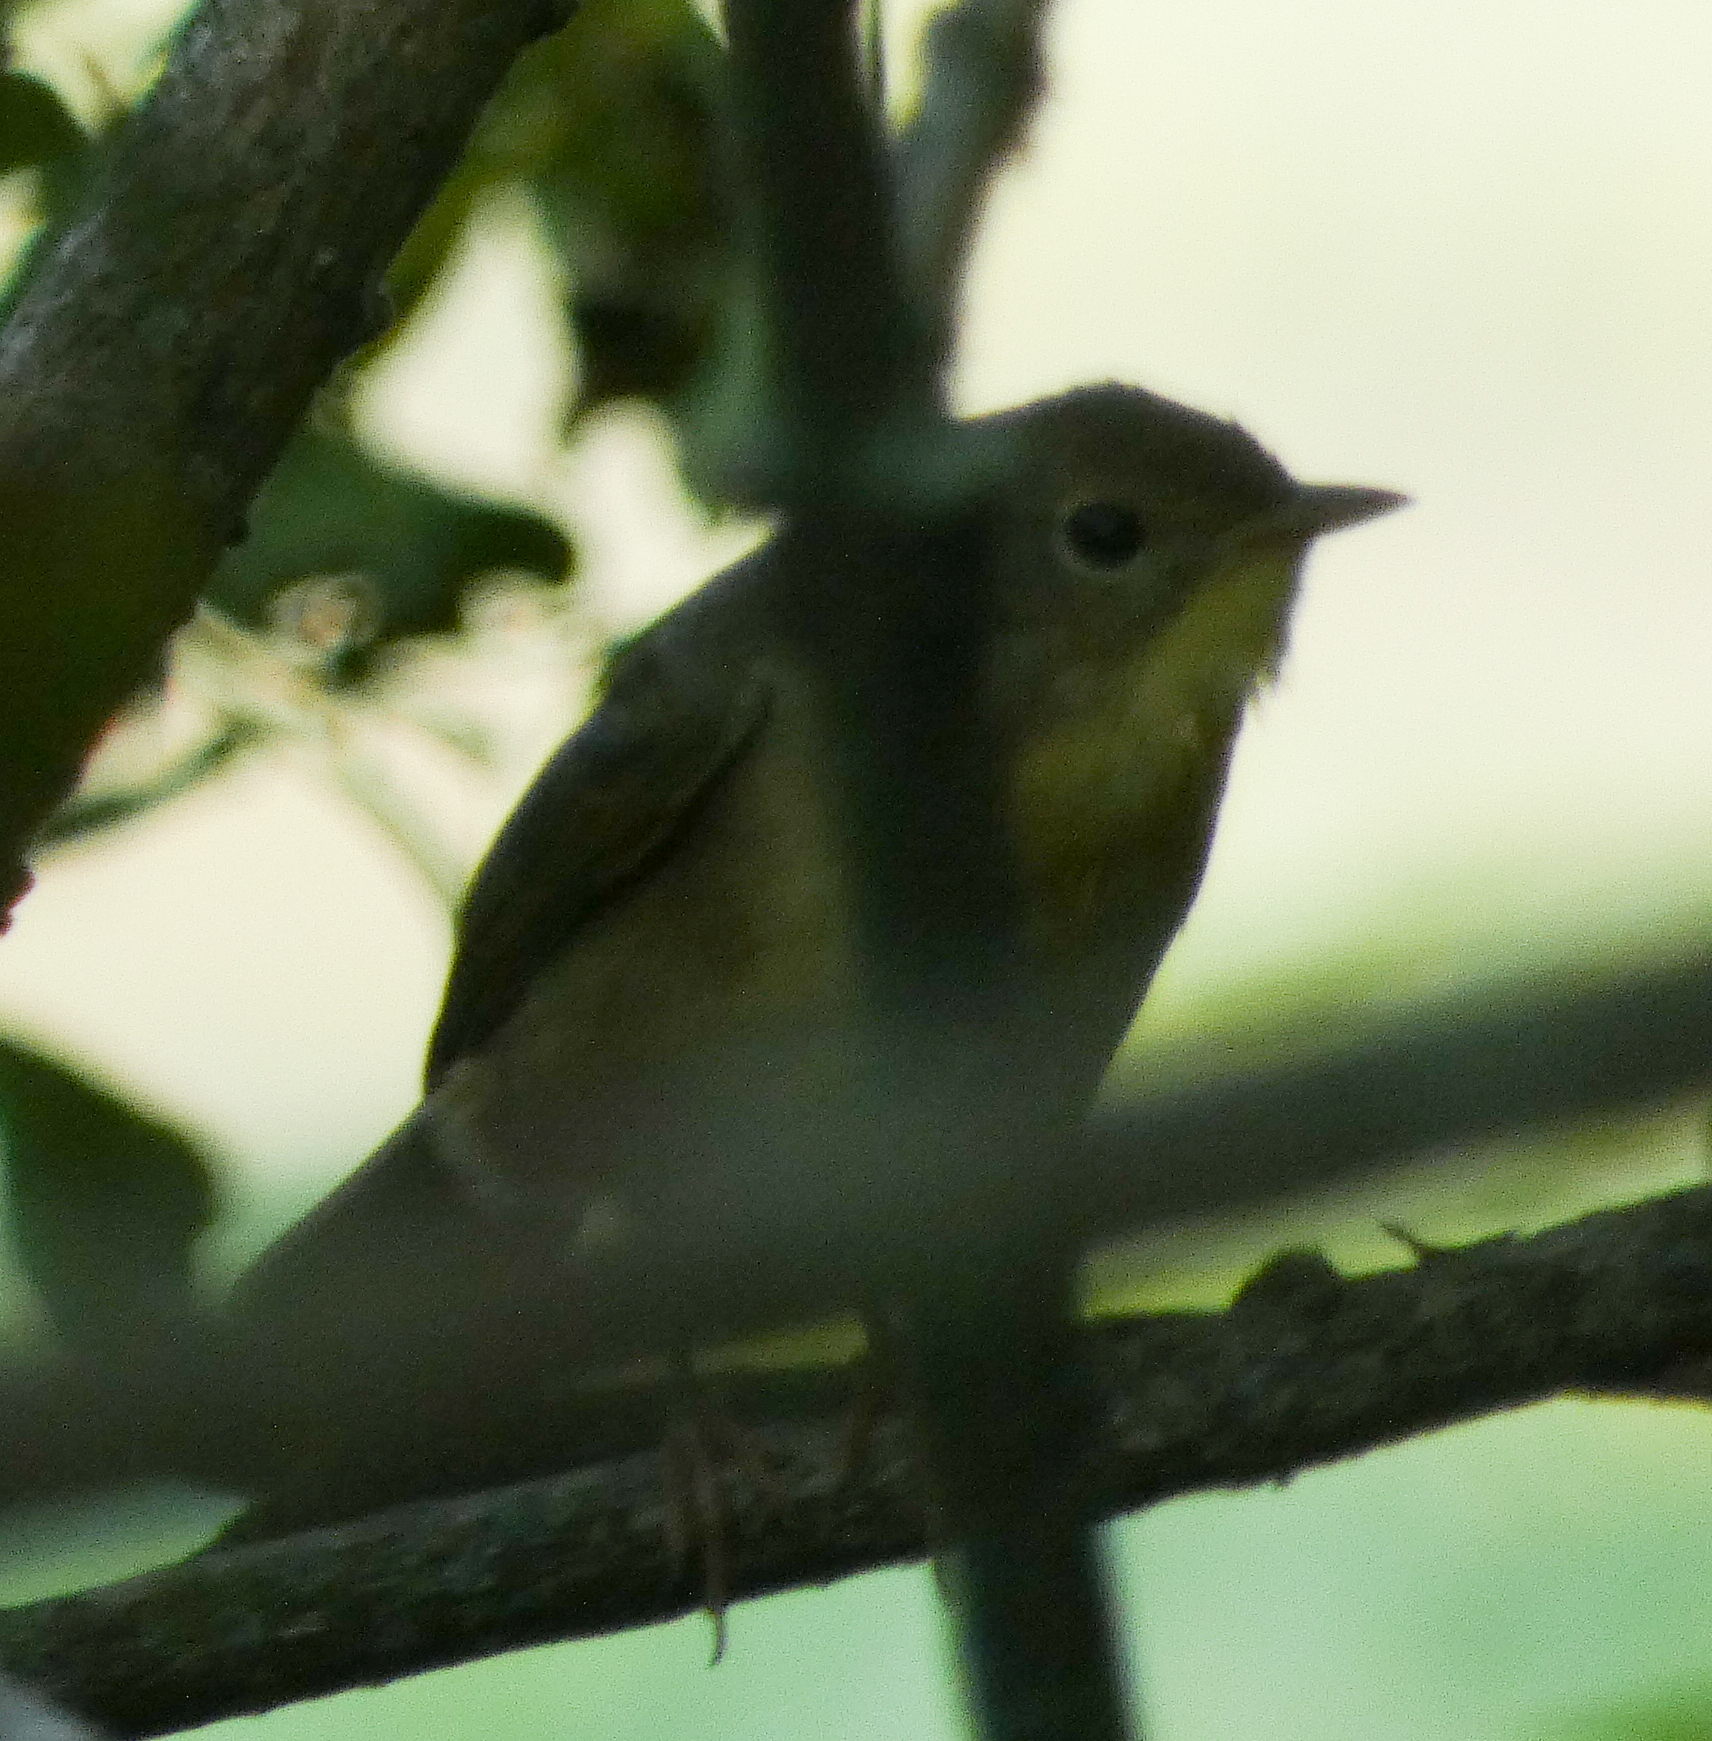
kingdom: Animalia
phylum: Chordata
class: Aves
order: Passeriformes
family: Parulidae
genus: Geothlypis
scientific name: Geothlypis trichas
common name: Common yellowthroat
